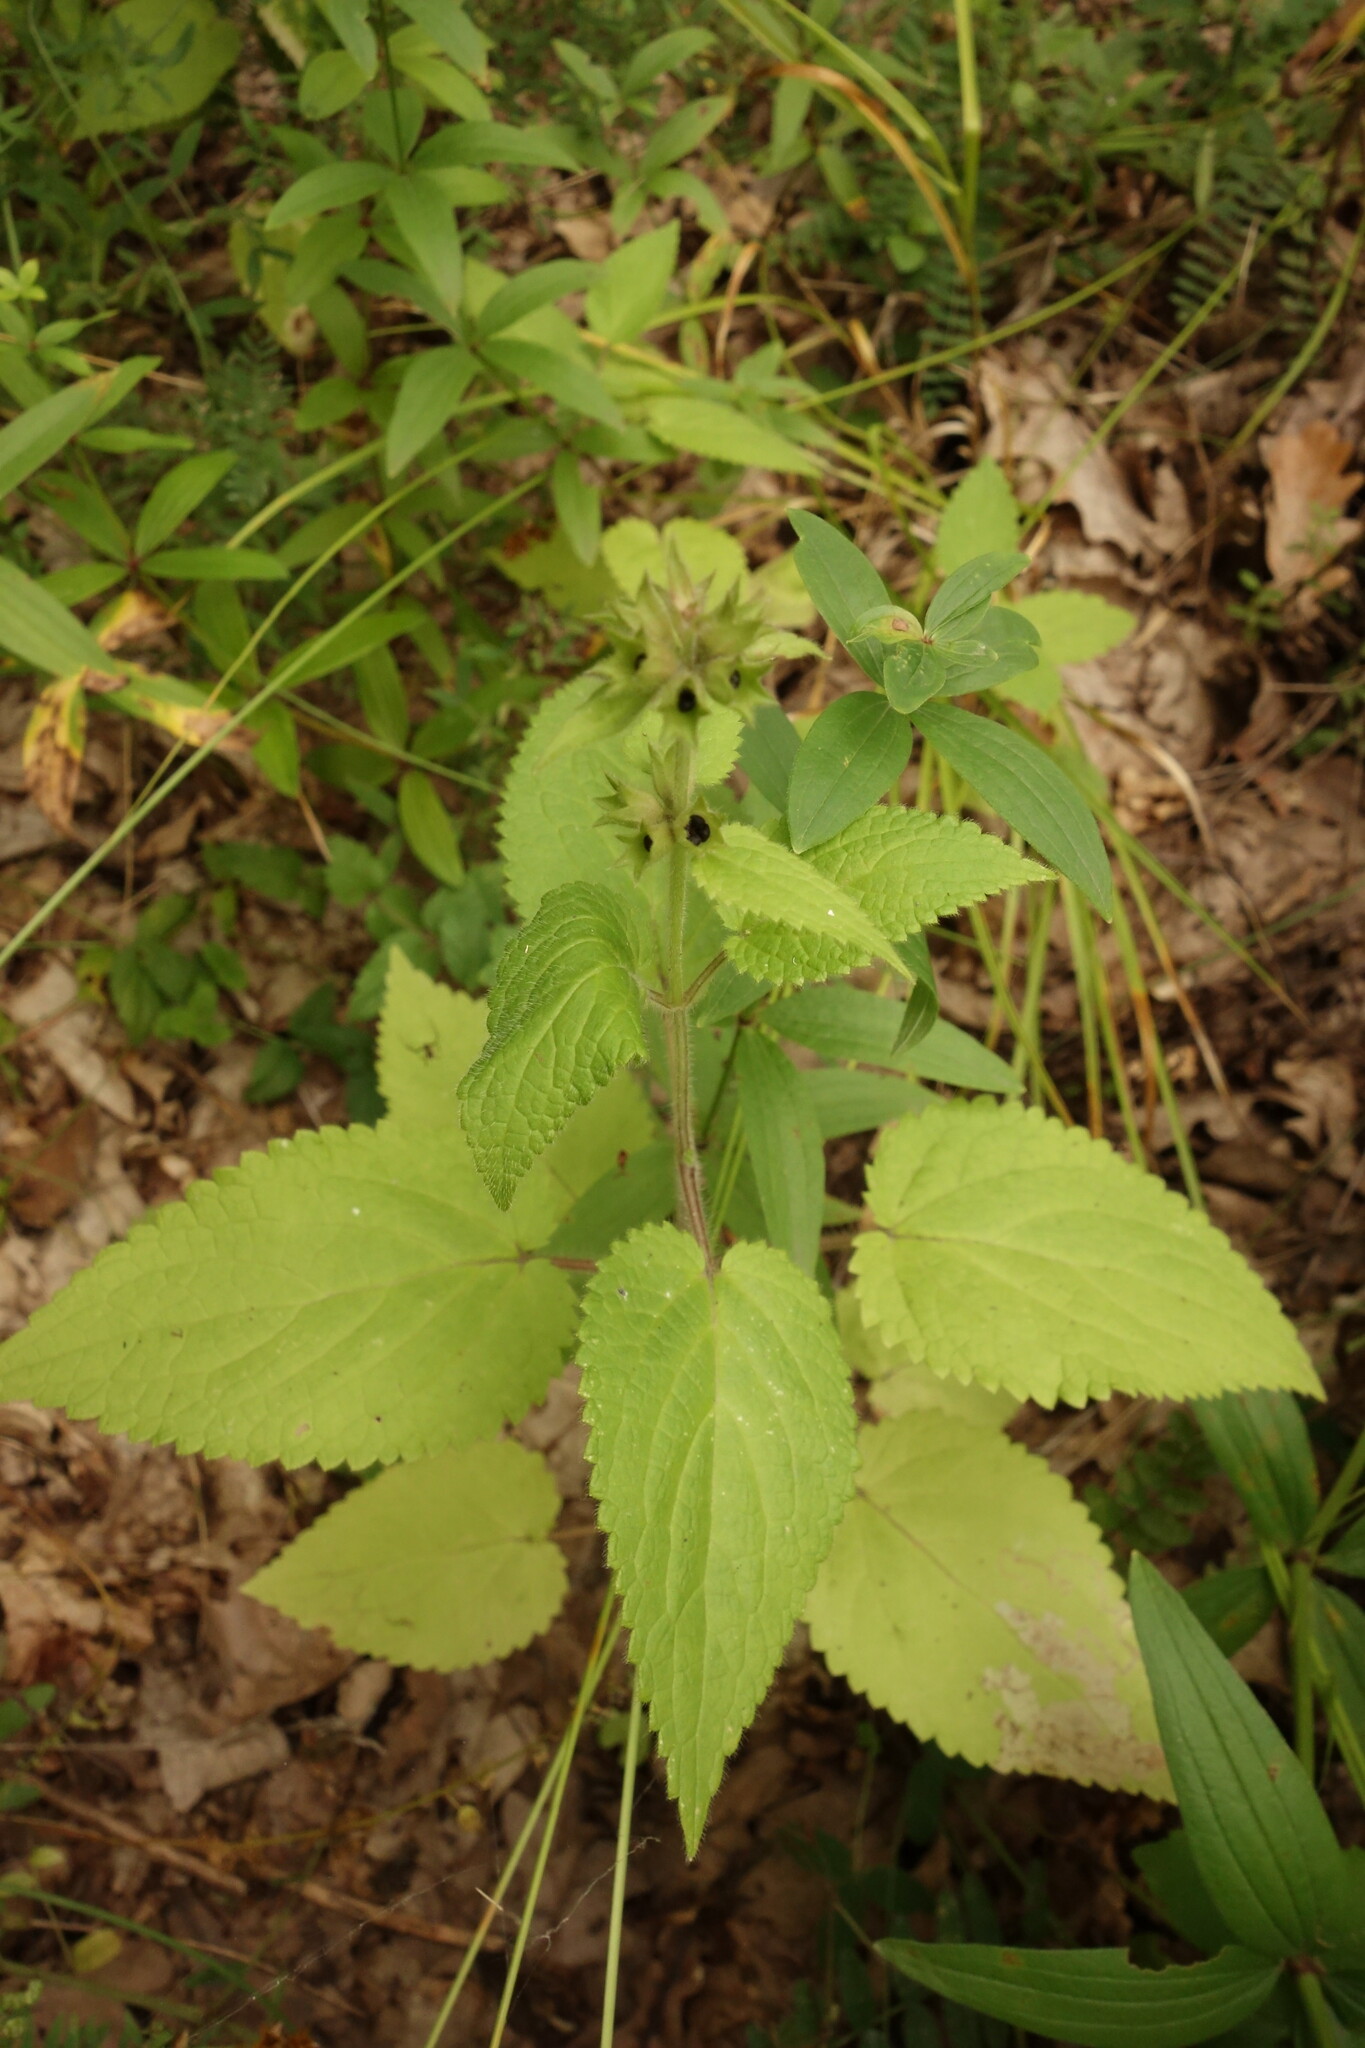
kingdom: Plantae
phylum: Tracheophyta
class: Magnoliopsida
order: Lamiales
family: Lamiaceae
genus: Stachys
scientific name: Stachys sylvatica
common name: Hedge woundwort
